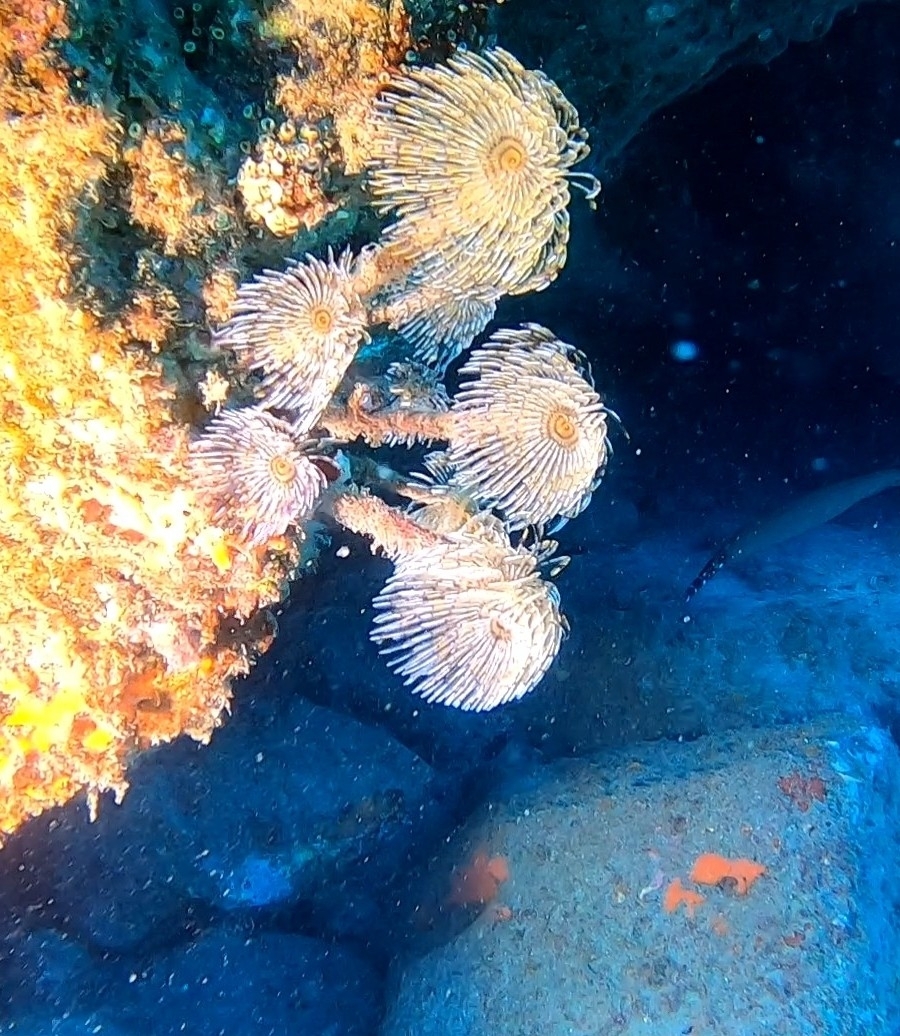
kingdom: Animalia
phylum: Annelida
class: Polychaeta
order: Sabellida
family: Sabellidae
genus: Sabella
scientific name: Sabella spallanzanii
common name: Feather duster worm
